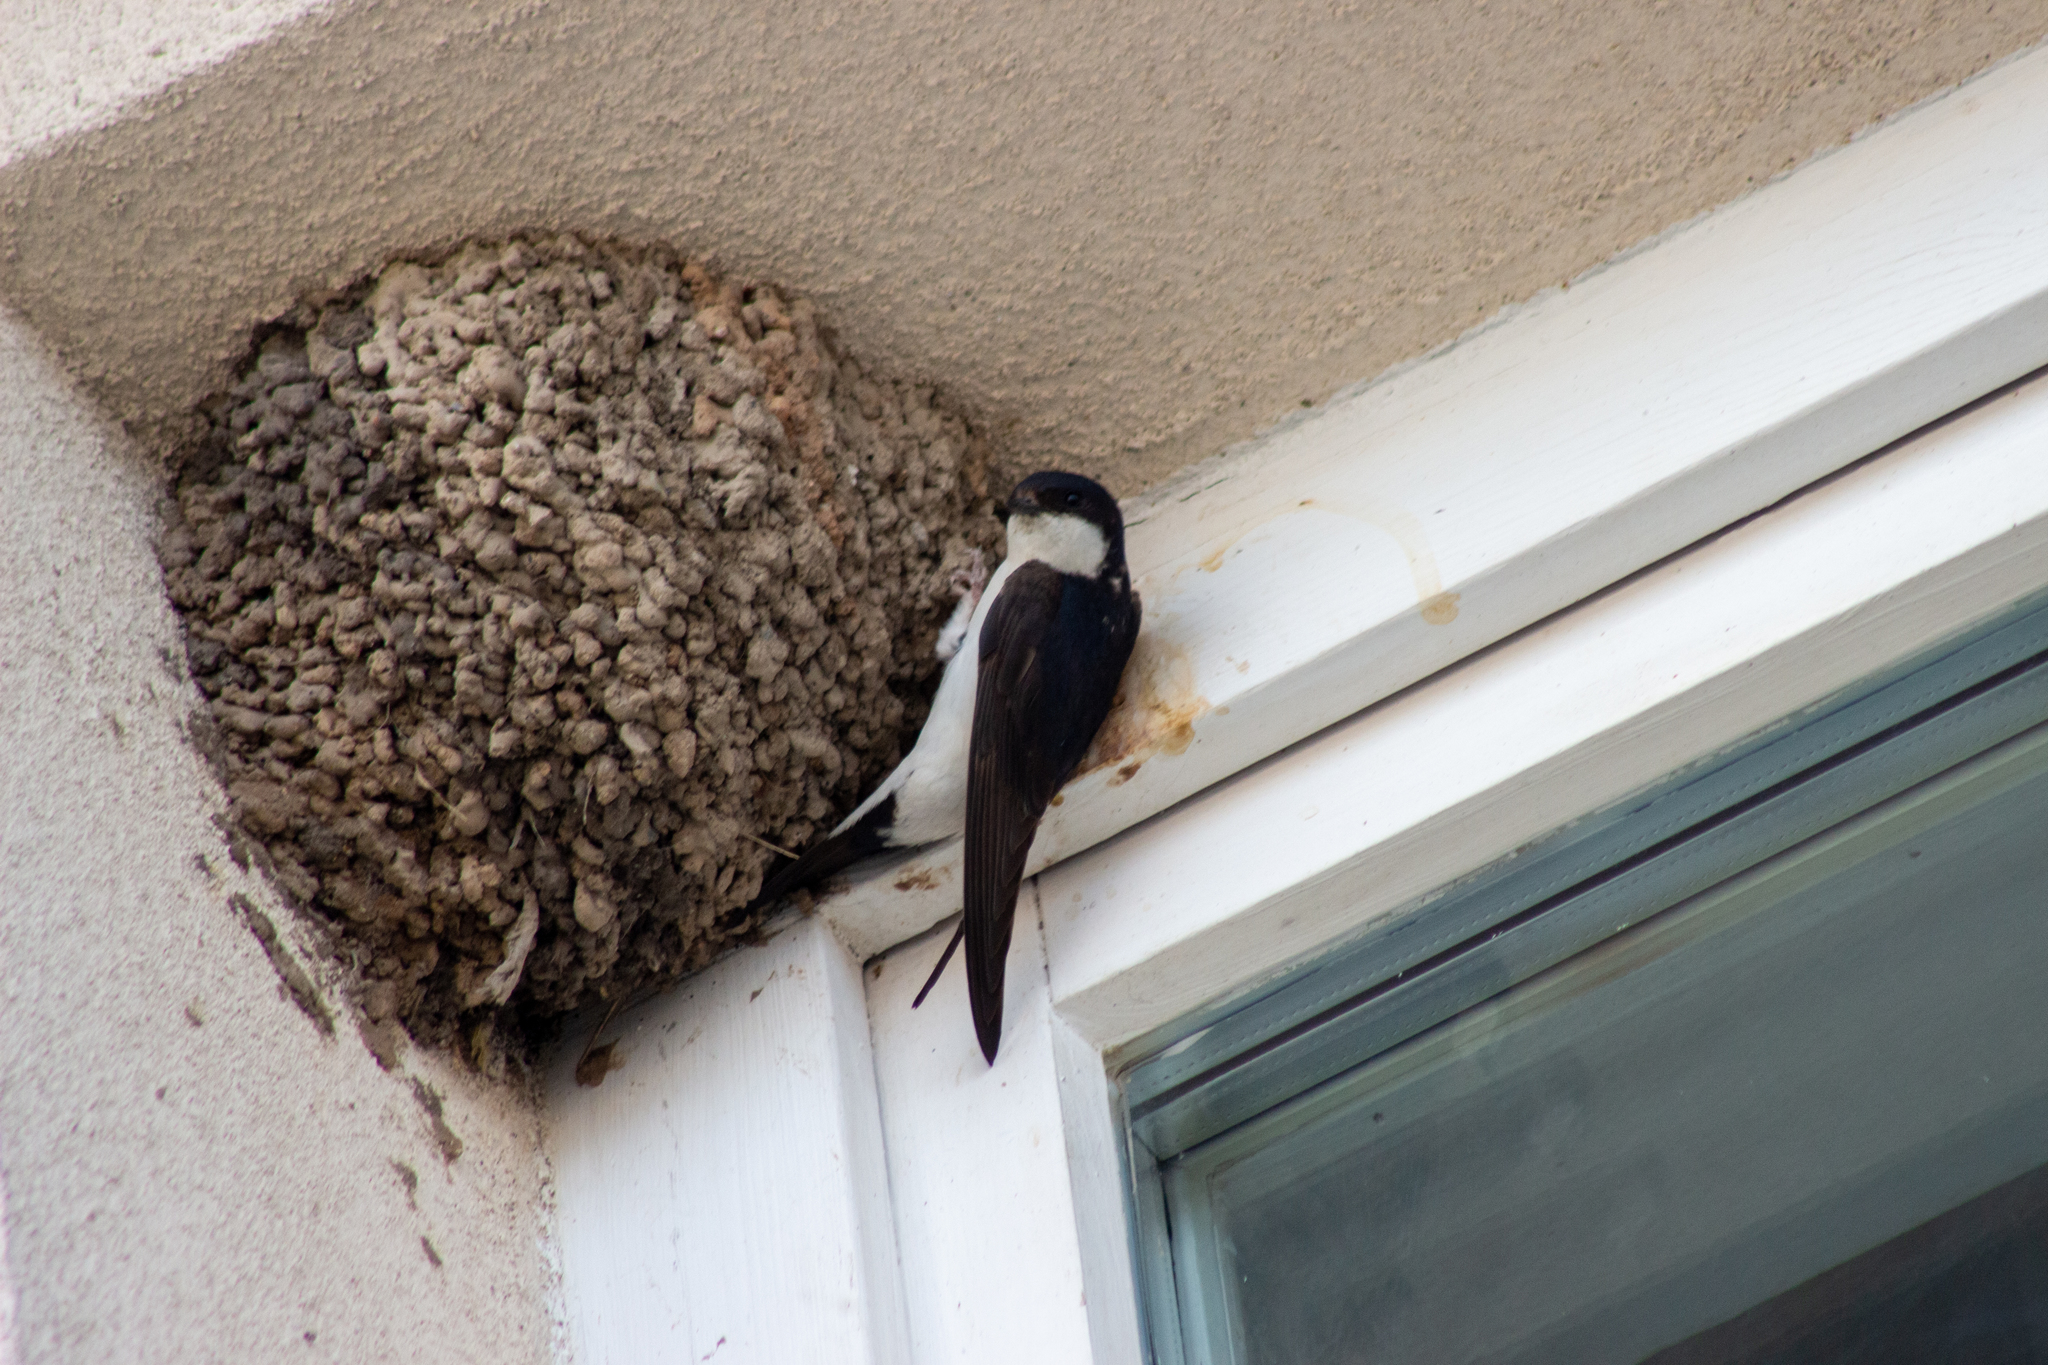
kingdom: Animalia
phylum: Chordata
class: Aves
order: Passeriformes
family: Hirundinidae
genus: Delichon
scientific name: Delichon urbicum
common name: Common house martin
